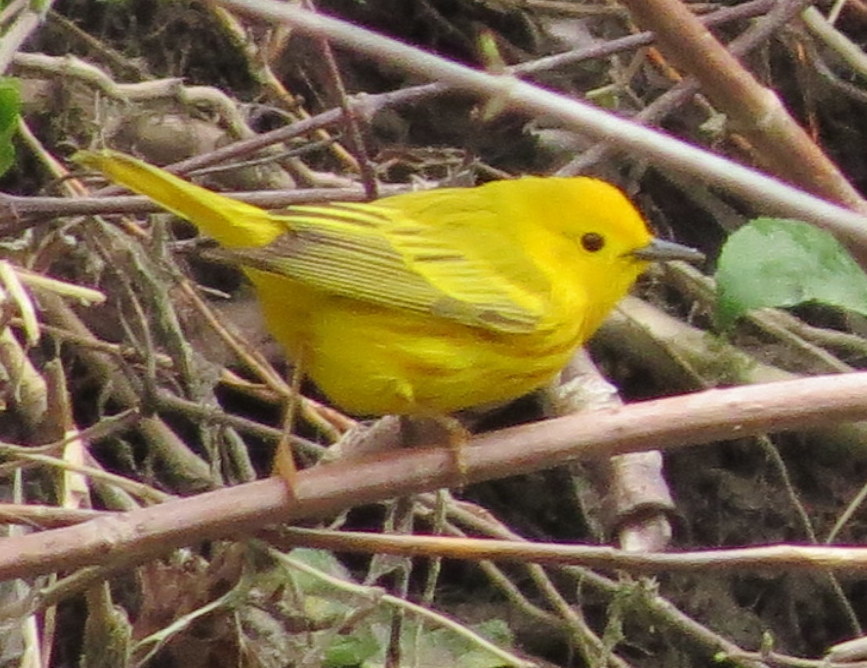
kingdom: Animalia
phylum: Chordata
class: Aves
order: Passeriformes
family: Parulidae
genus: Setophaga
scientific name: Setophaga petechia
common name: Yellow warbler
